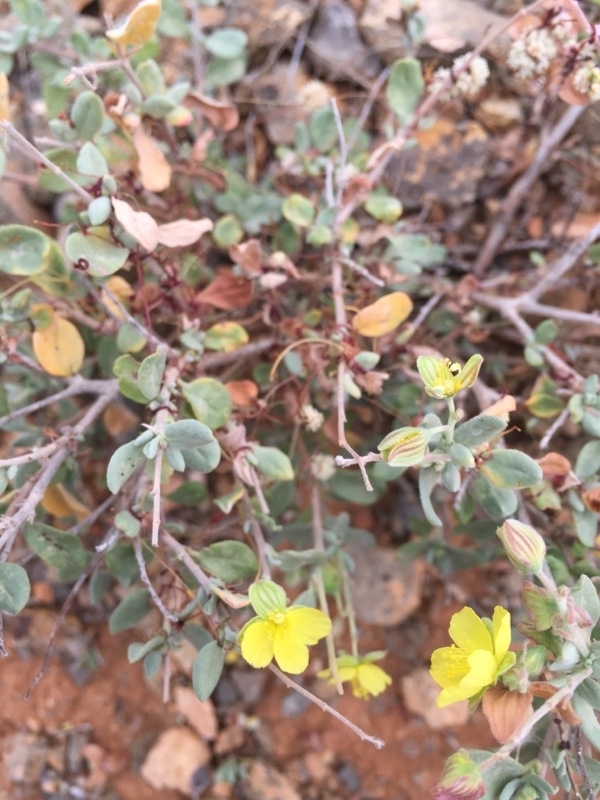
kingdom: Plantae
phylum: Tracheophyta
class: Magnoliopsida
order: Malvales
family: Cistaceae
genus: Helianthemum
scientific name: Helianthemum canariense
